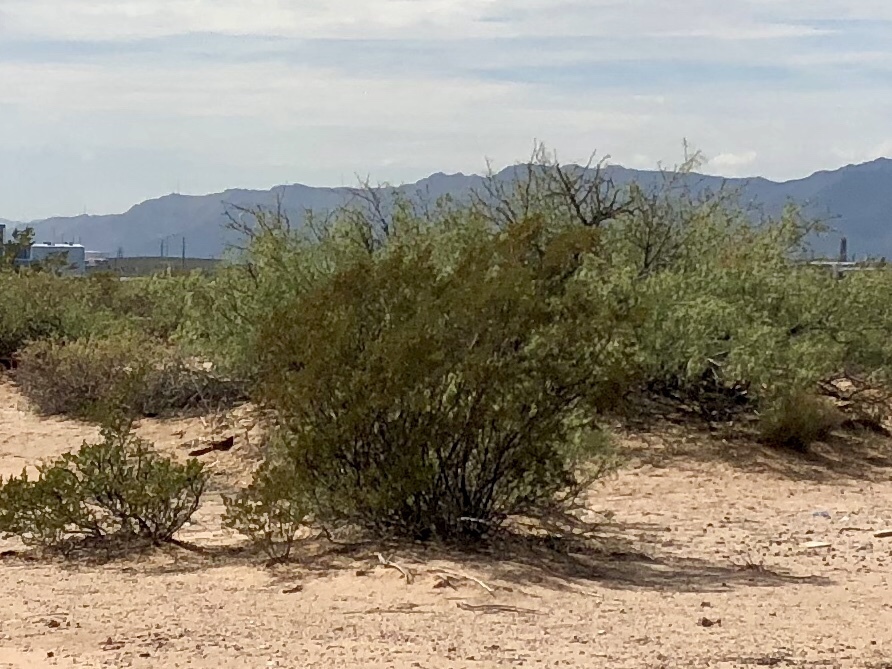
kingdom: Plantae
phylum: Tracheophyta
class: Magnoliopsida
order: Zygophyllales
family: Zygophyllaceae
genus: Larrea
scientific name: Larrea tridentata
